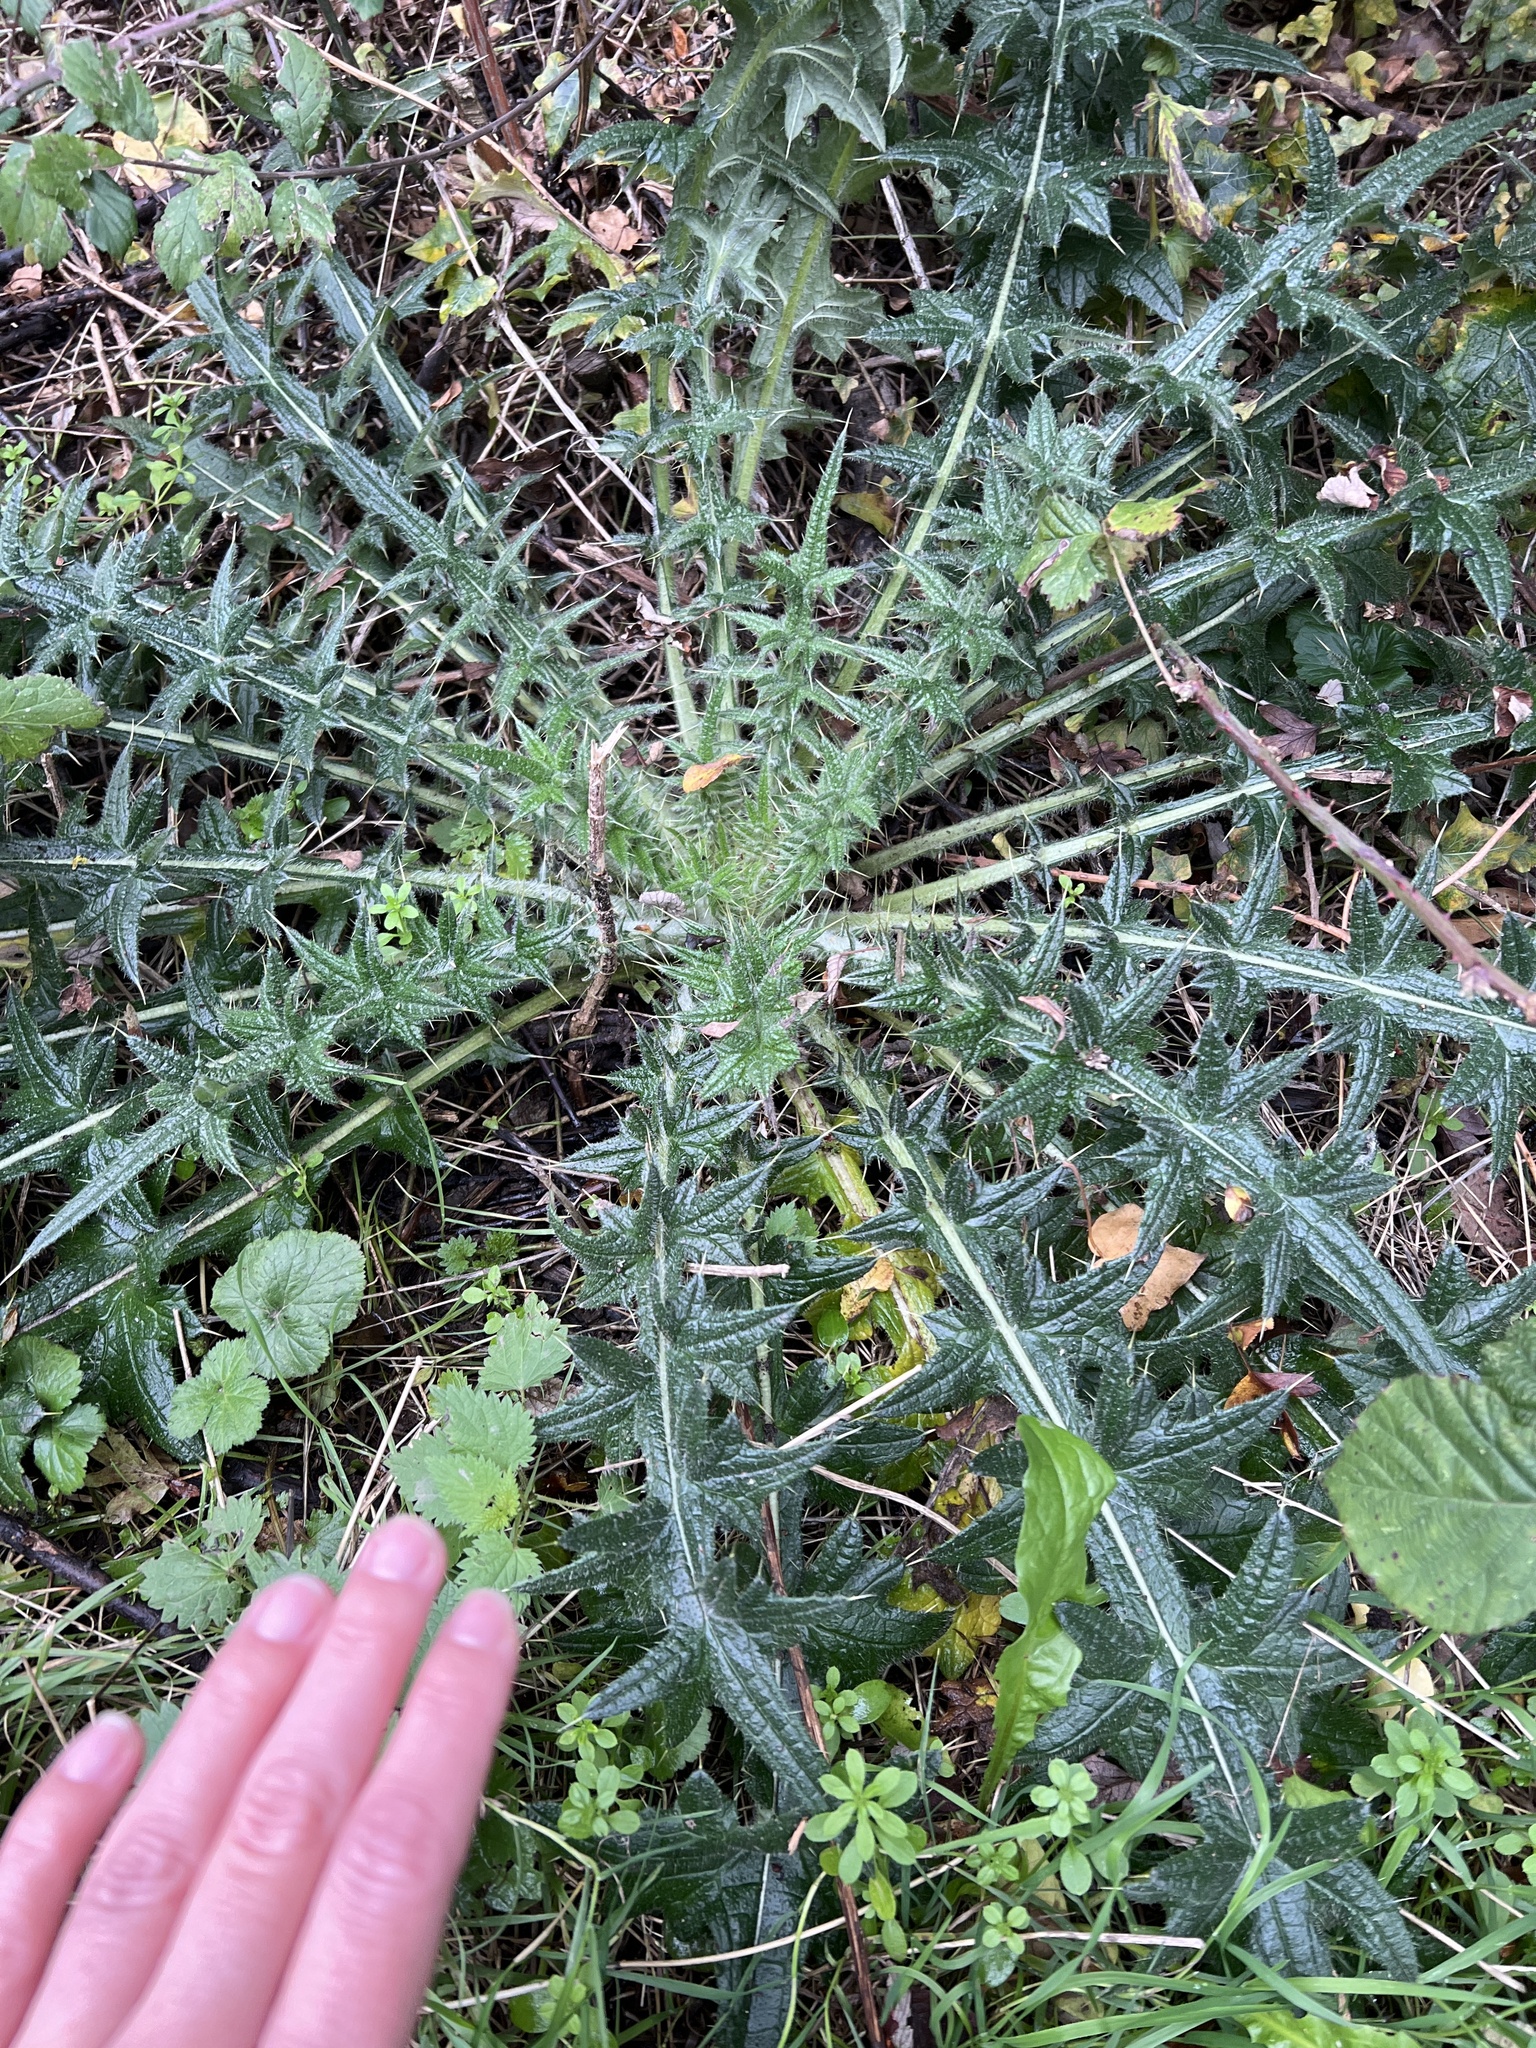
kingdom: Plantae
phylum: Tracheophyta
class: Magnoliopsida
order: Asterales
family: Asteraceae
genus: Cirsium
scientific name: Cirsium vulgare
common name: Bull thistle
